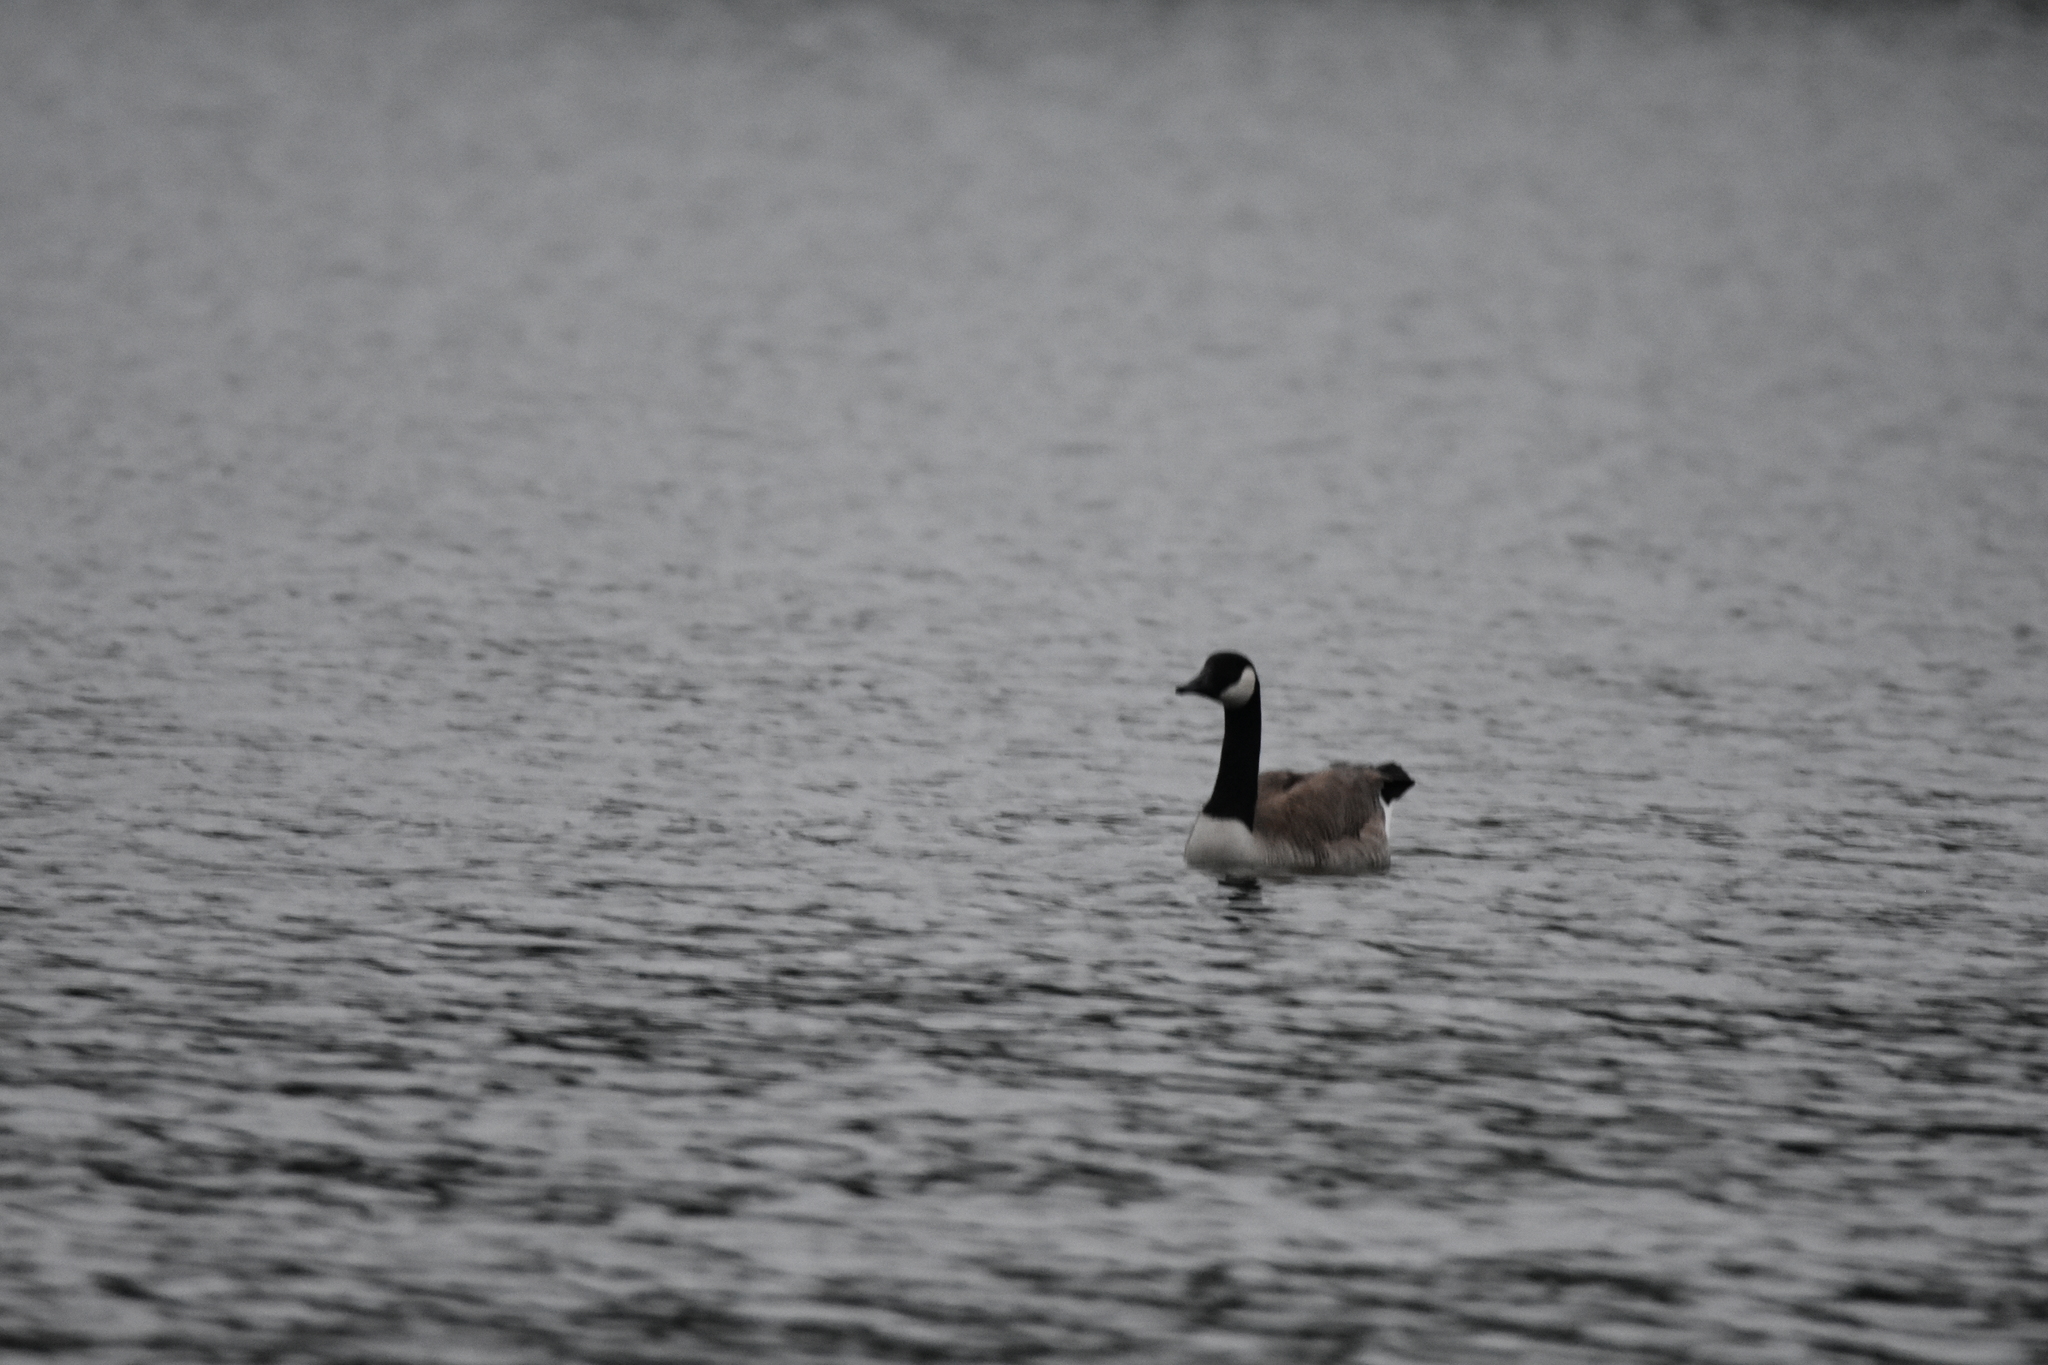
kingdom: Animalia
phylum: Chordata
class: Aves
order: Anseriformes
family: Anatidae
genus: Branta
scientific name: Branta canadensis
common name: Canada goose
